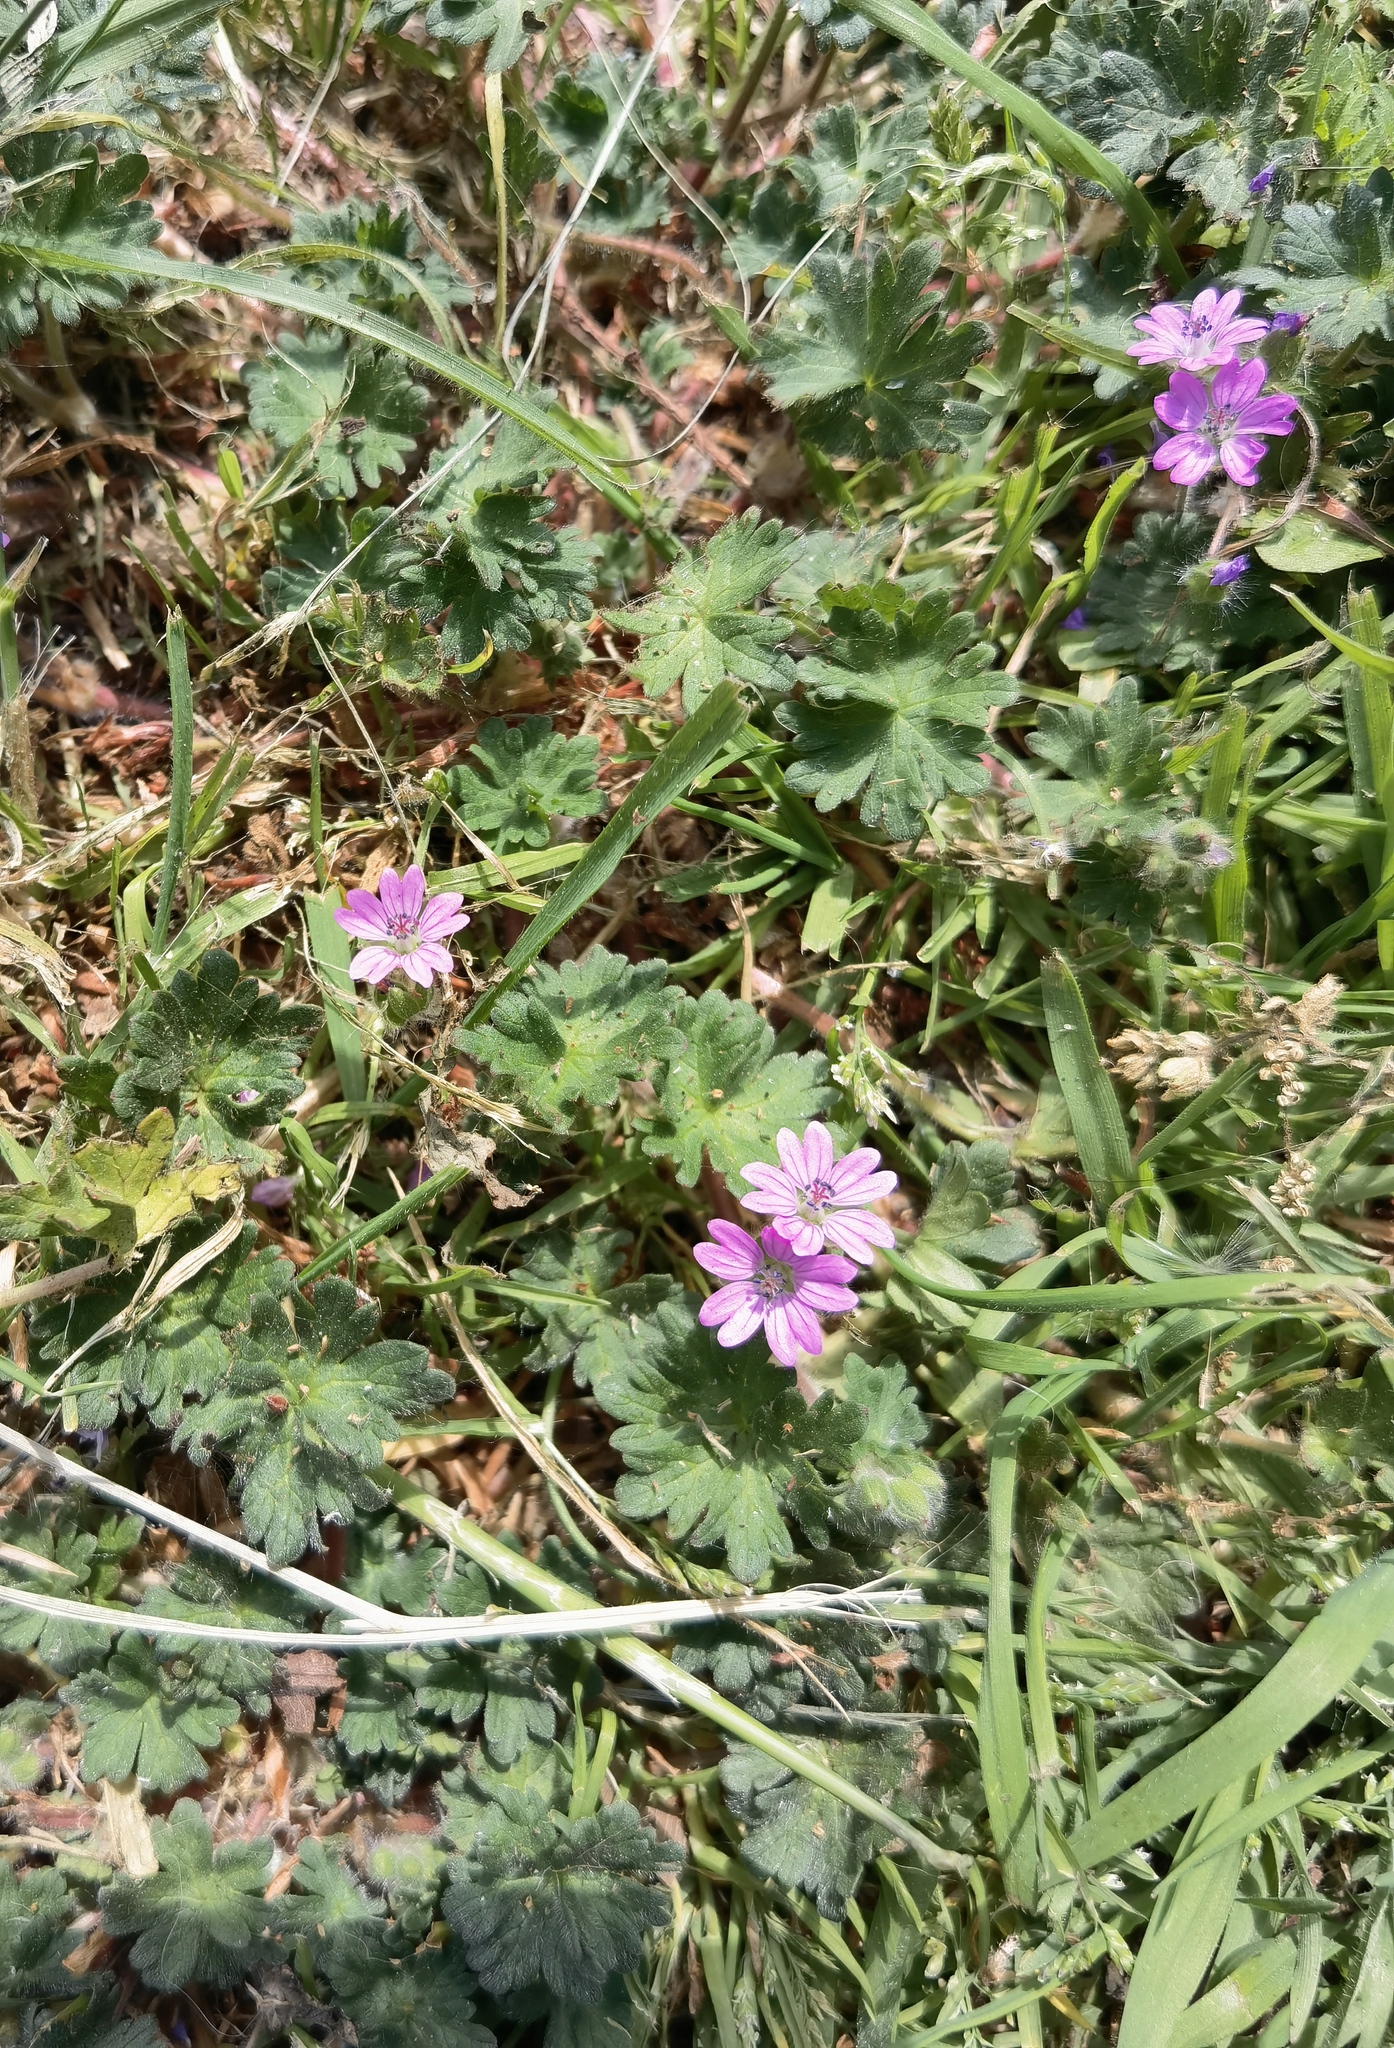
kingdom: Plantae
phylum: Tracheophyta
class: Magnoliopsida
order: Geraniales
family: Geraniaceae
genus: Geranium
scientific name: Geranium molle
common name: Dove's-foot crane's-bill
